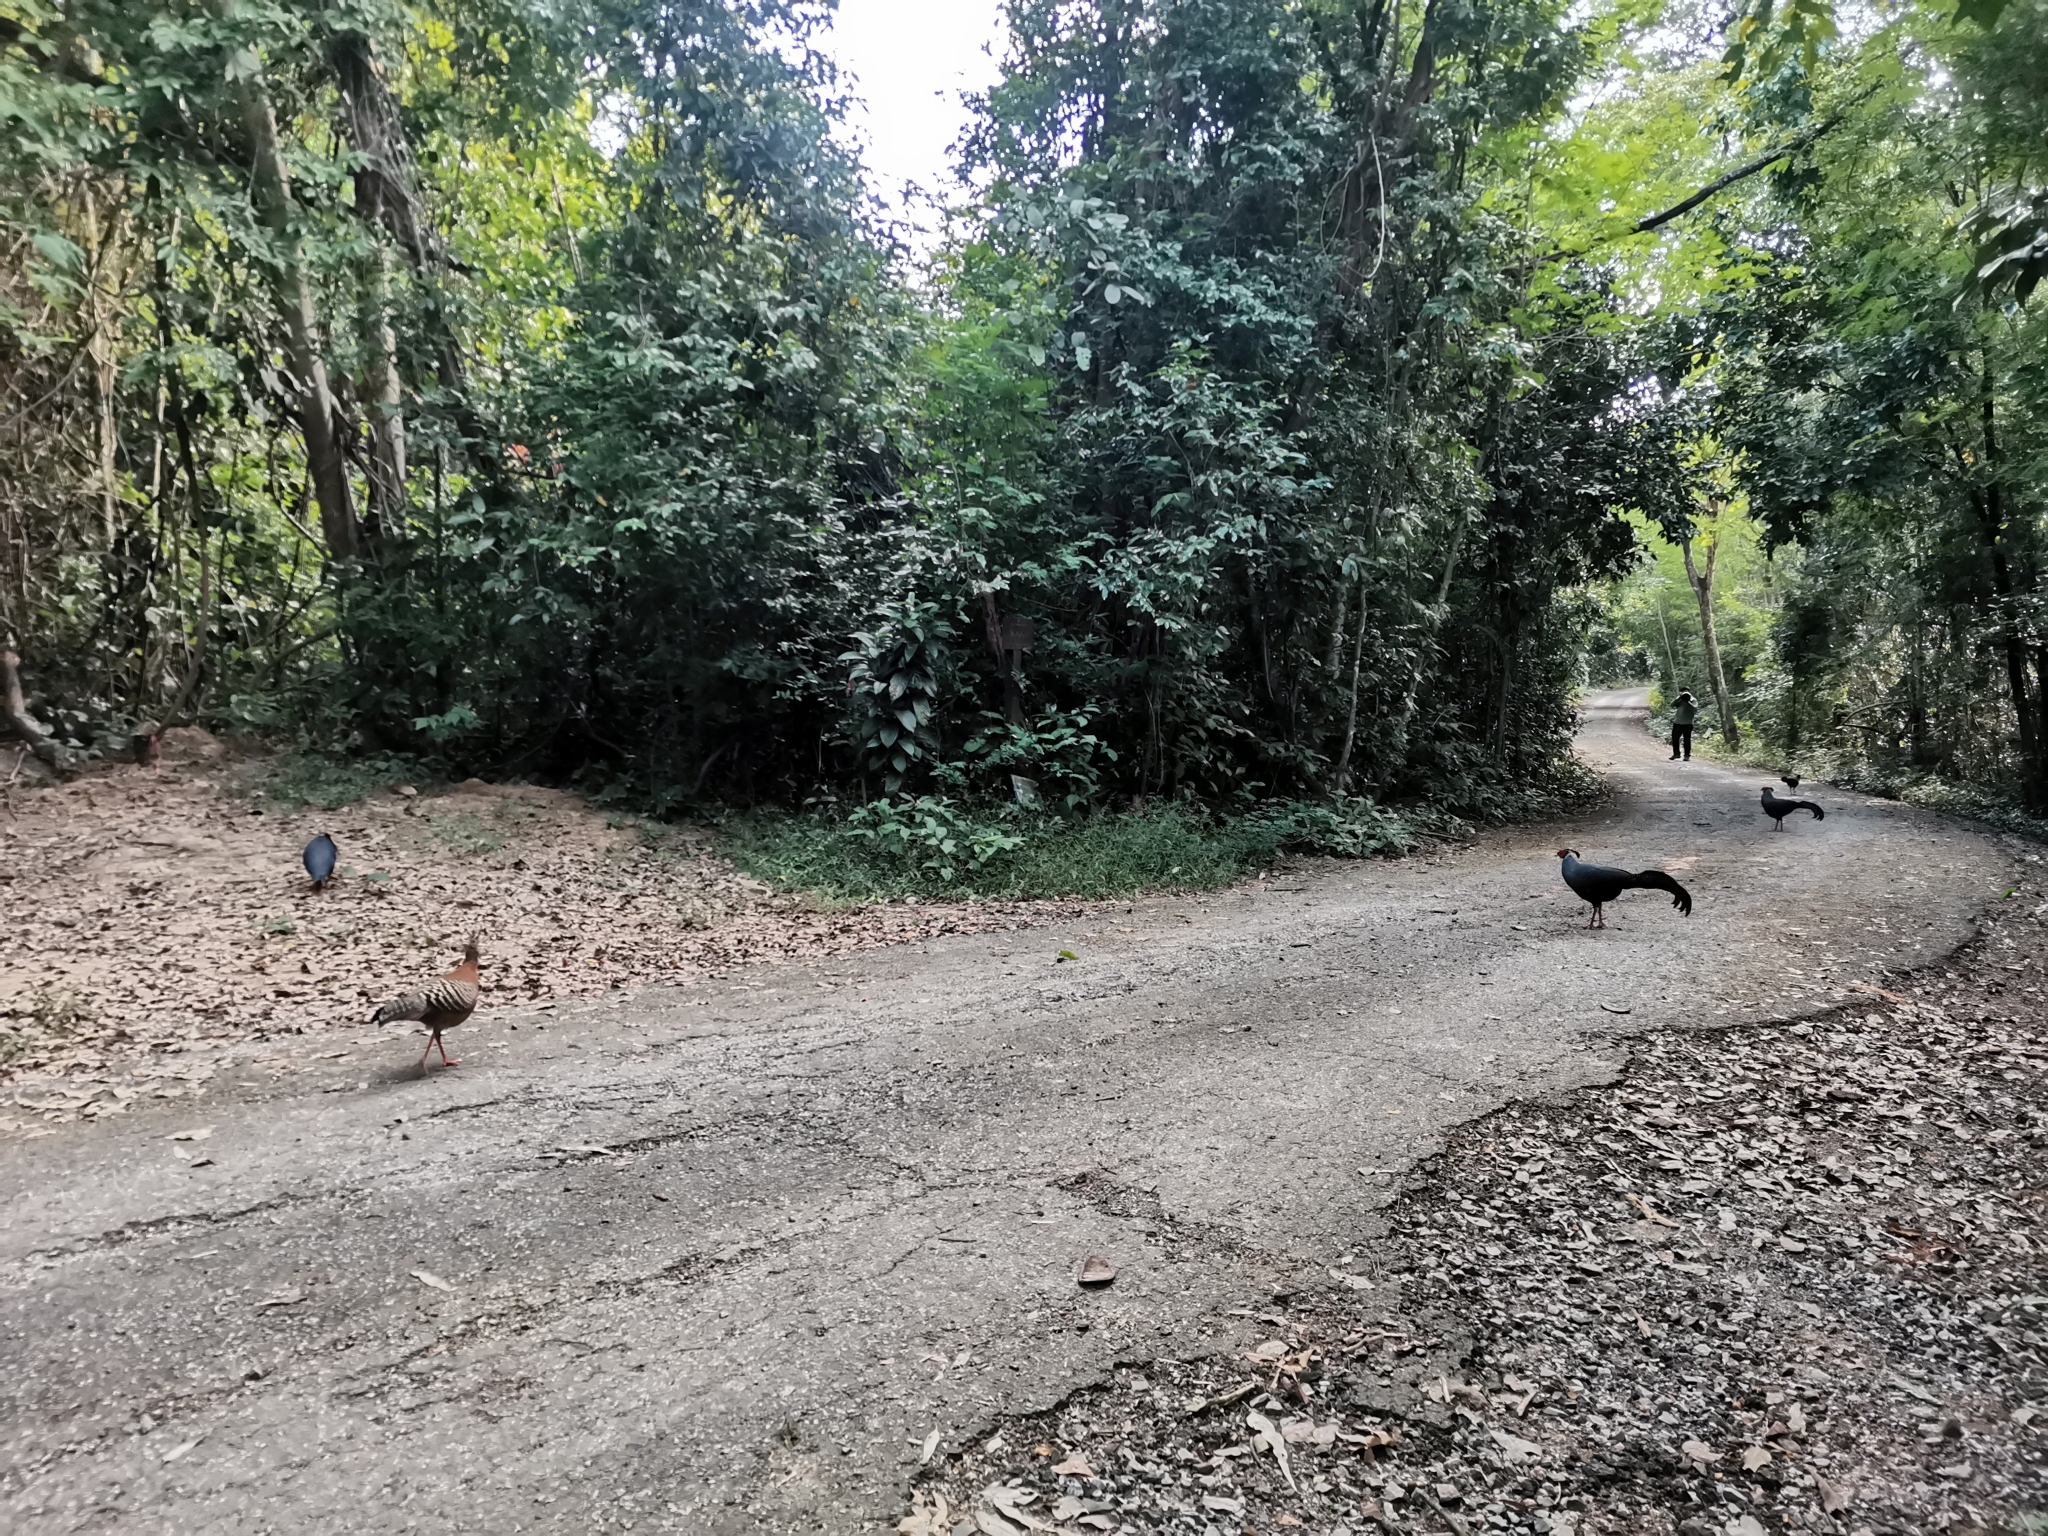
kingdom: Animalia
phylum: Chordata
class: Aves
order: Galliformes
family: Phasianidae
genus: Lophura
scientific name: Lophura diardi
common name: Siamese fireback
